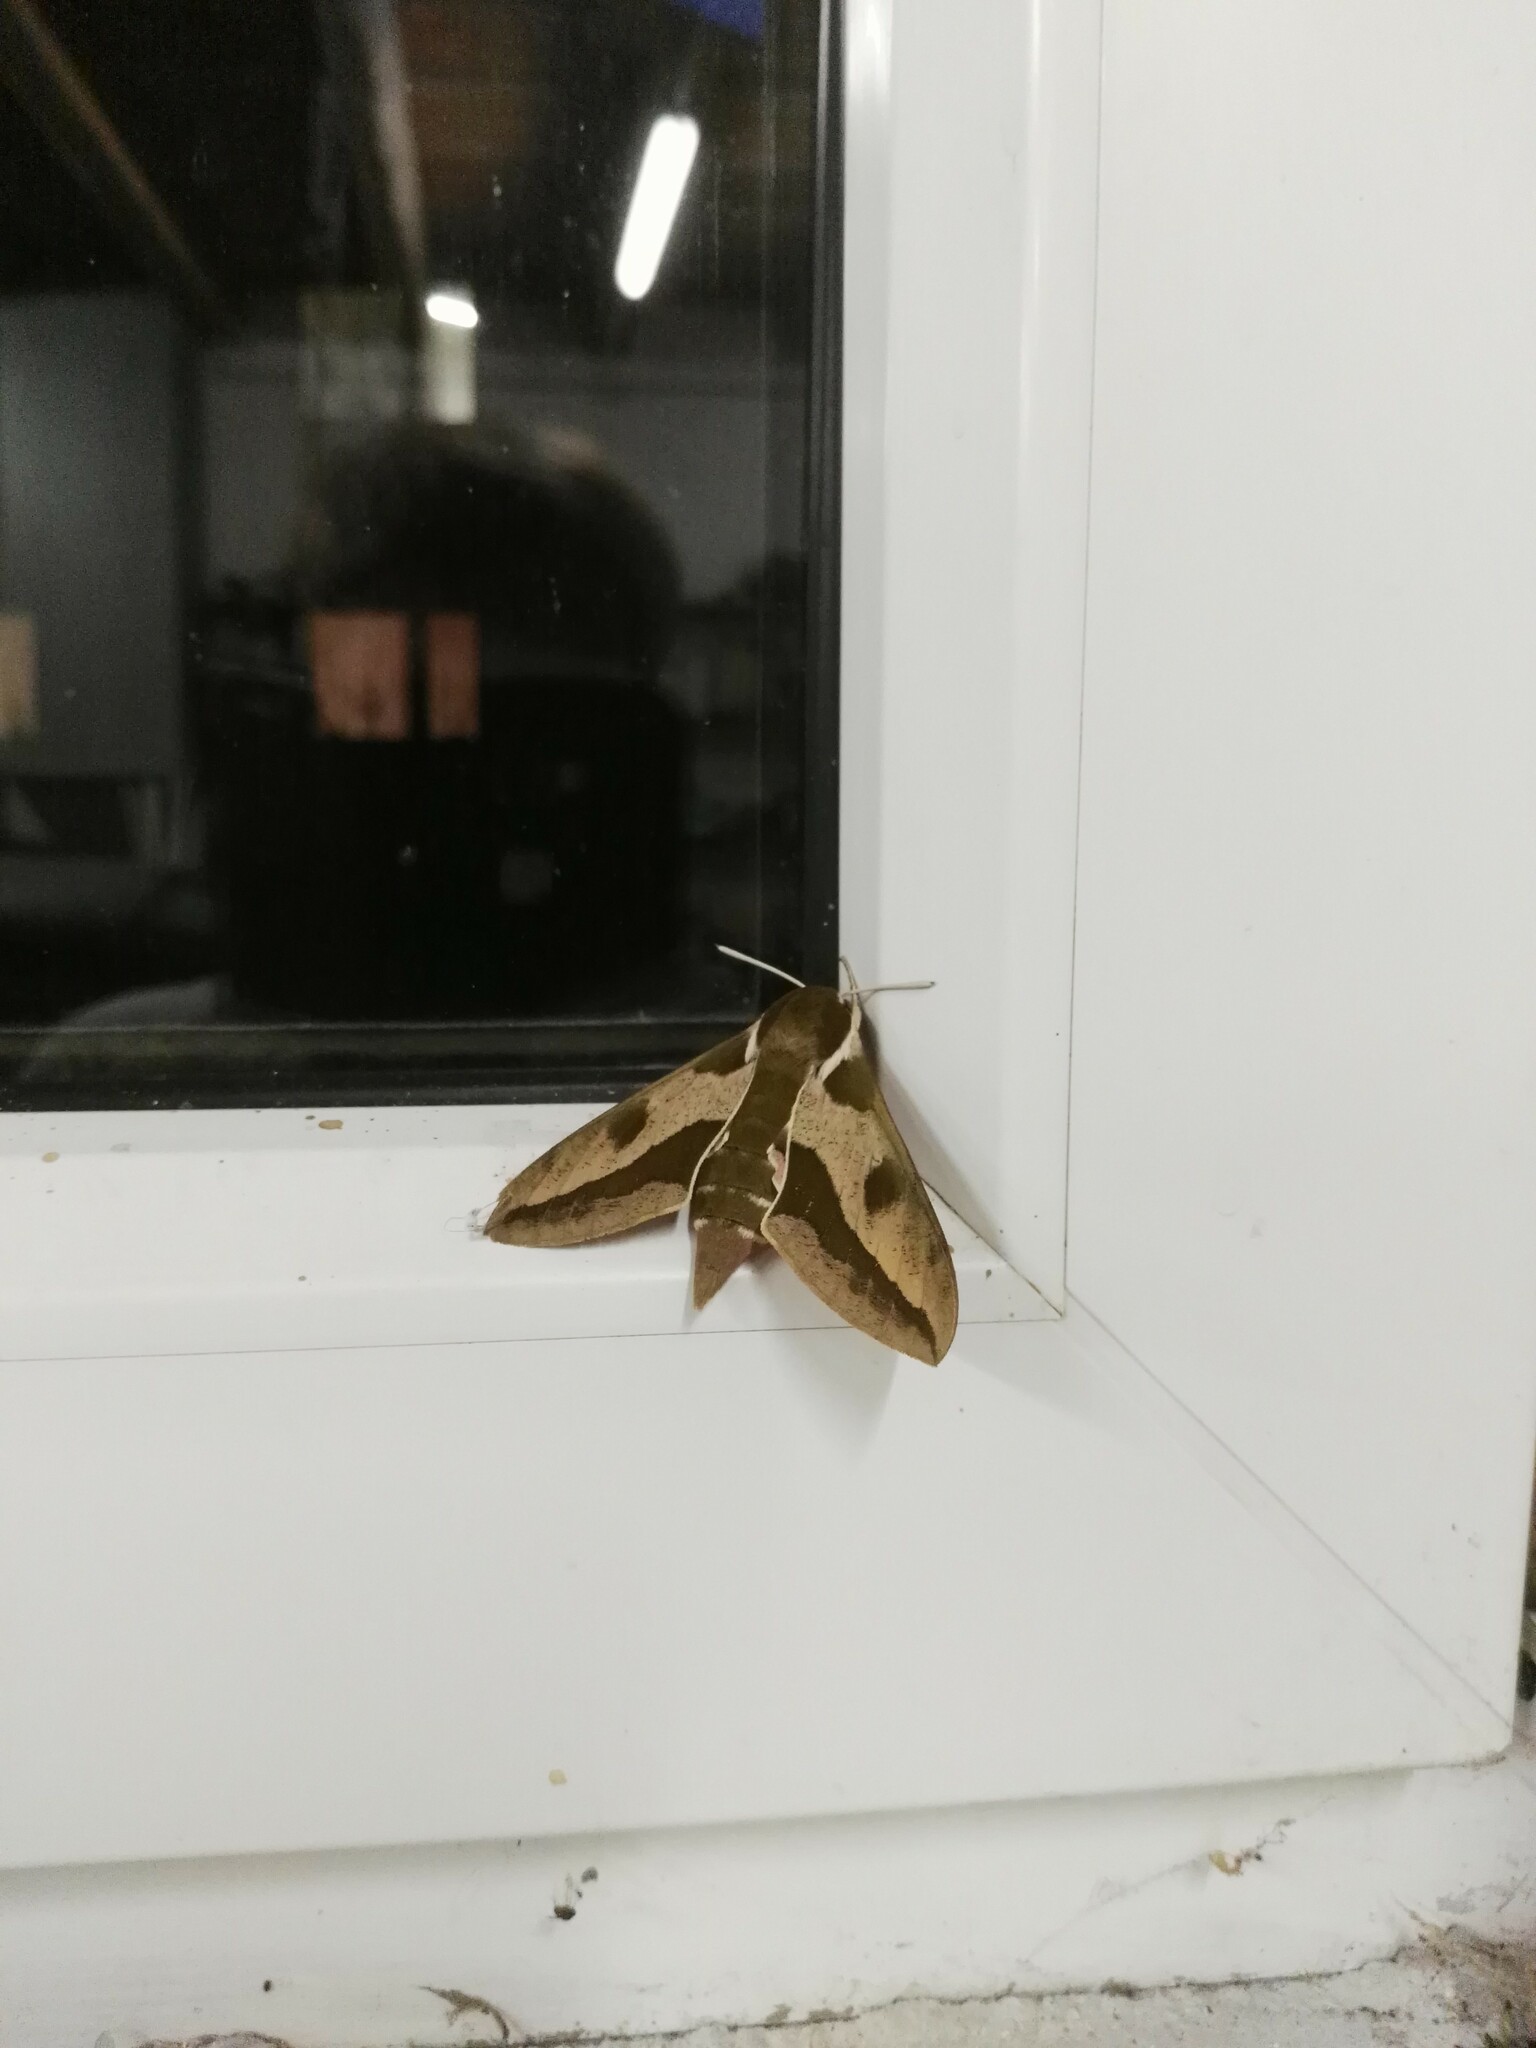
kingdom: Animalia
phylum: Arthropoda
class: Insecta
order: Lepidoptera
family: Sphingidae
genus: Hyles
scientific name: Hyles euphorbiae
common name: Spurge hawk-moth
